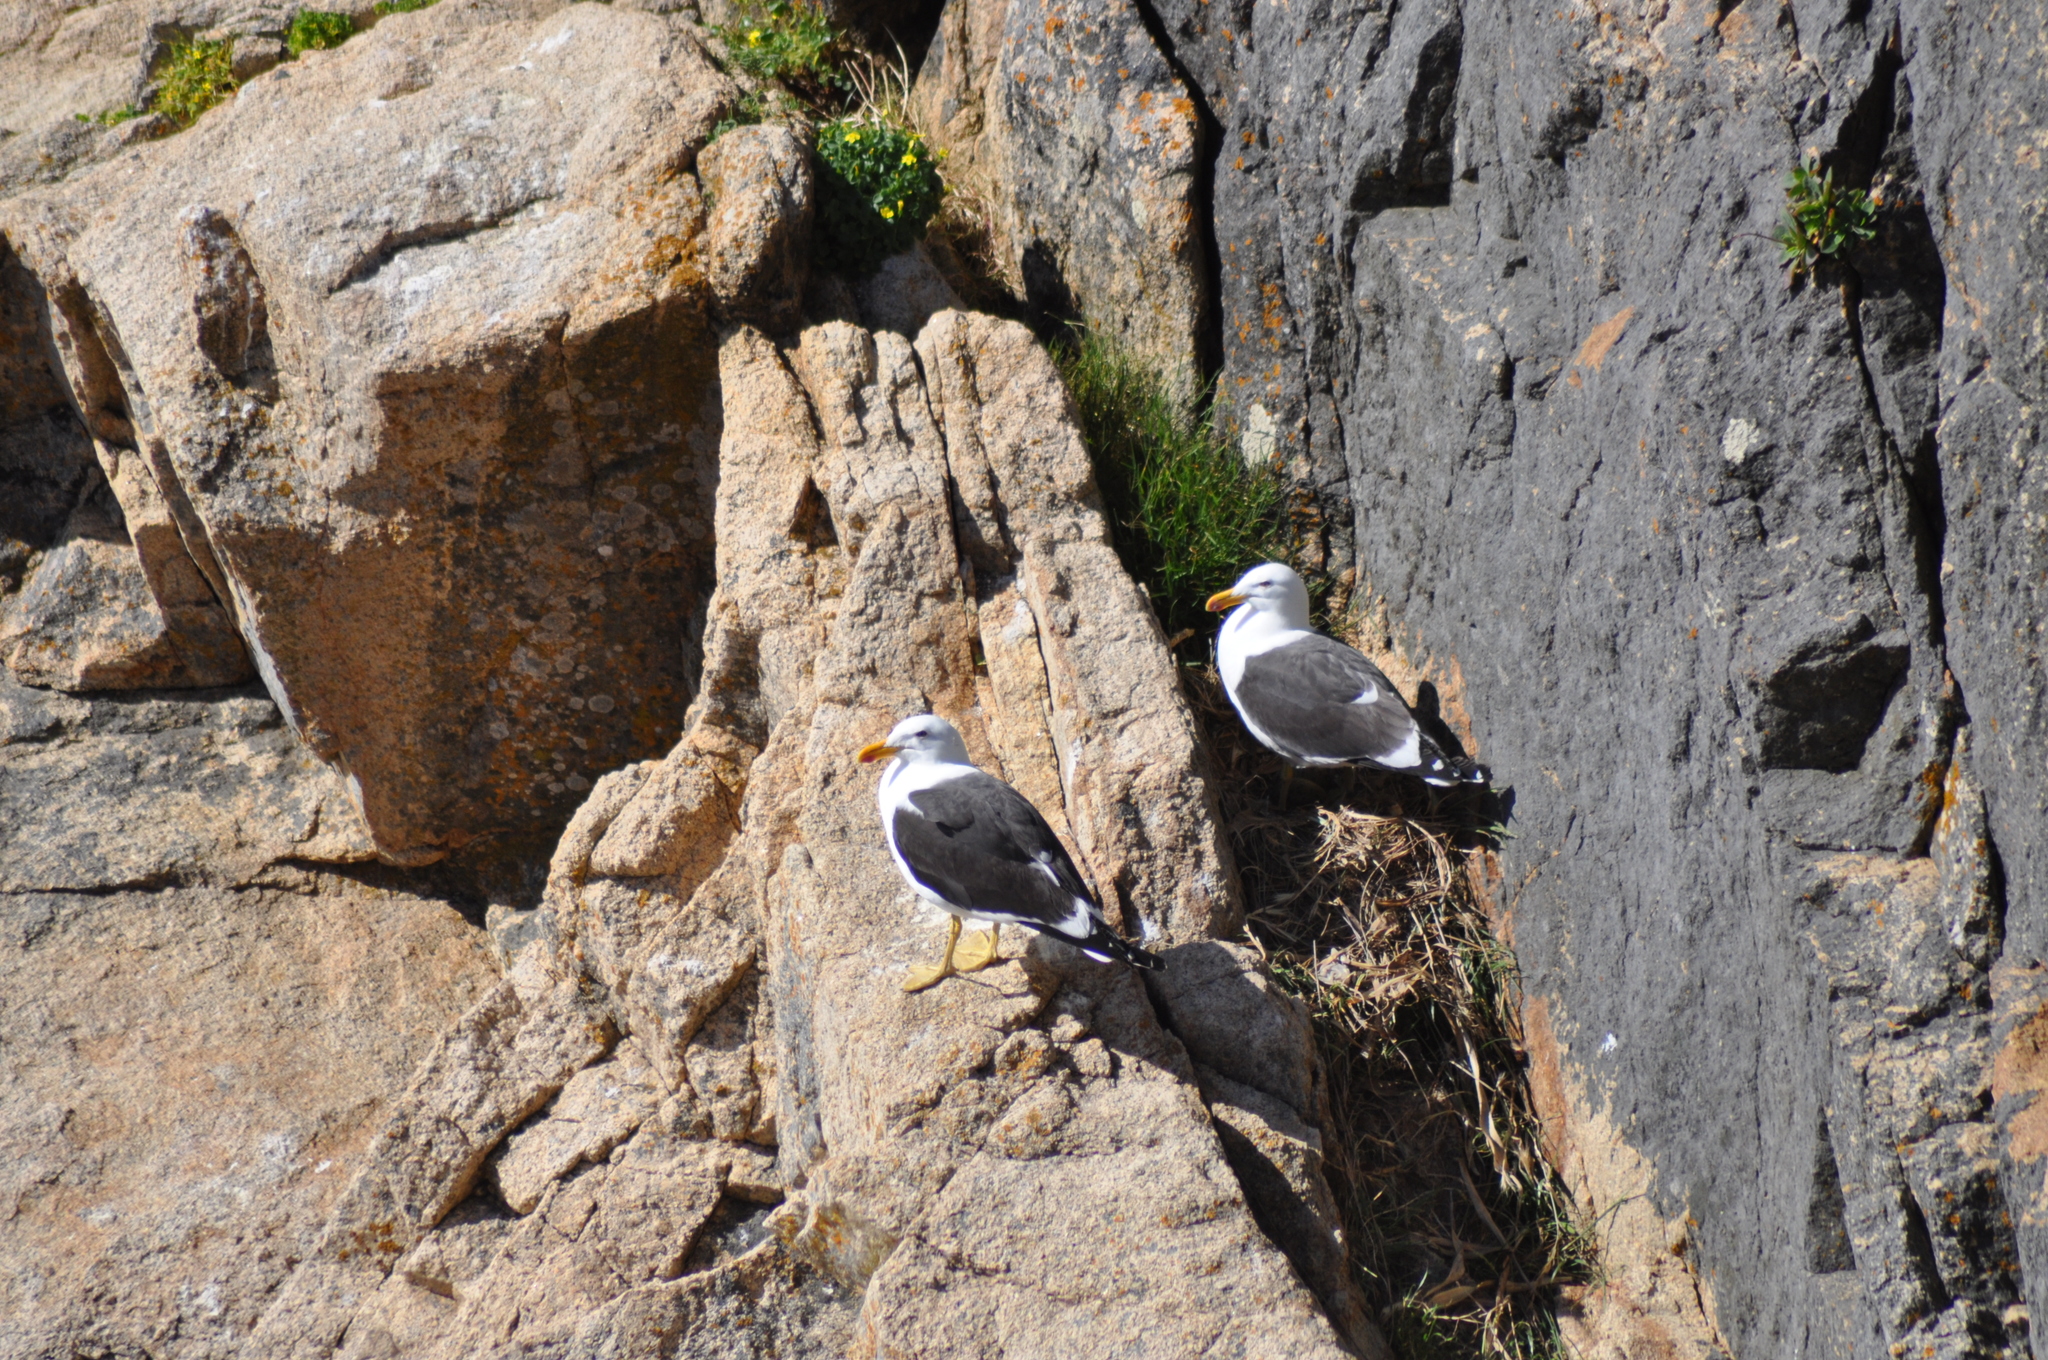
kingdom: Animalia
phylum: Chordata
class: Aves
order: Charadriiformes
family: Laridae
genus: Larus
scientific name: Larus dominicanus
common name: Kelp gull
